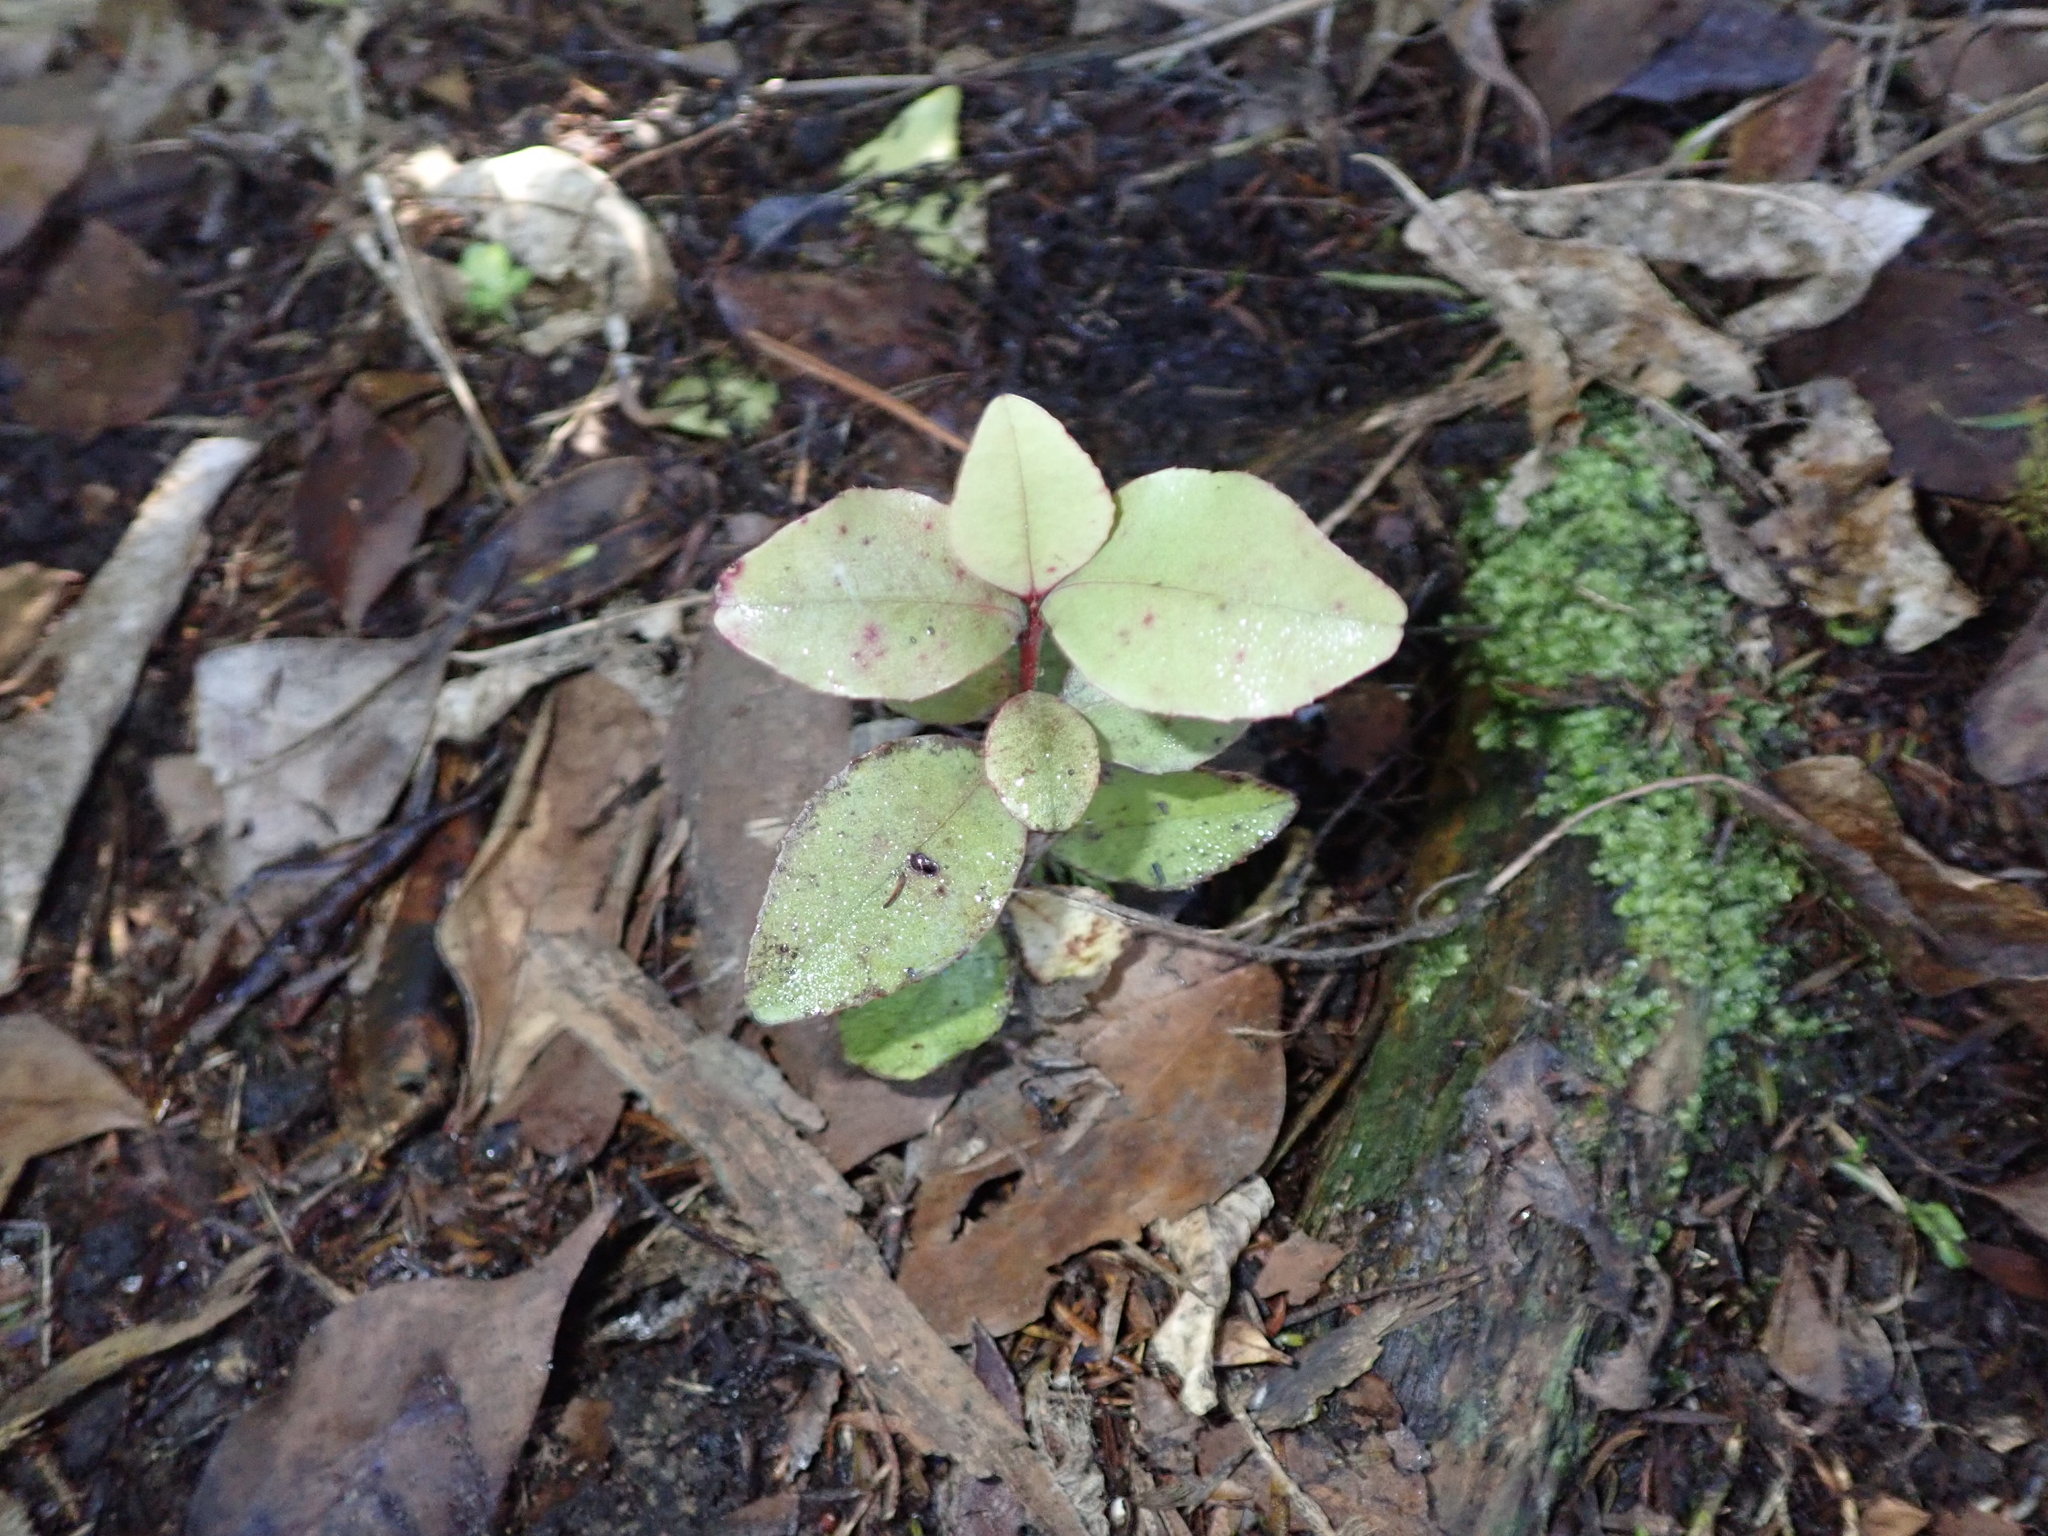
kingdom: Plantae
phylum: Tracheophyta
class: Magnoliopsida
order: Ericales
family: Primulaceae
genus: Myrsine
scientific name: Myrsine australis
